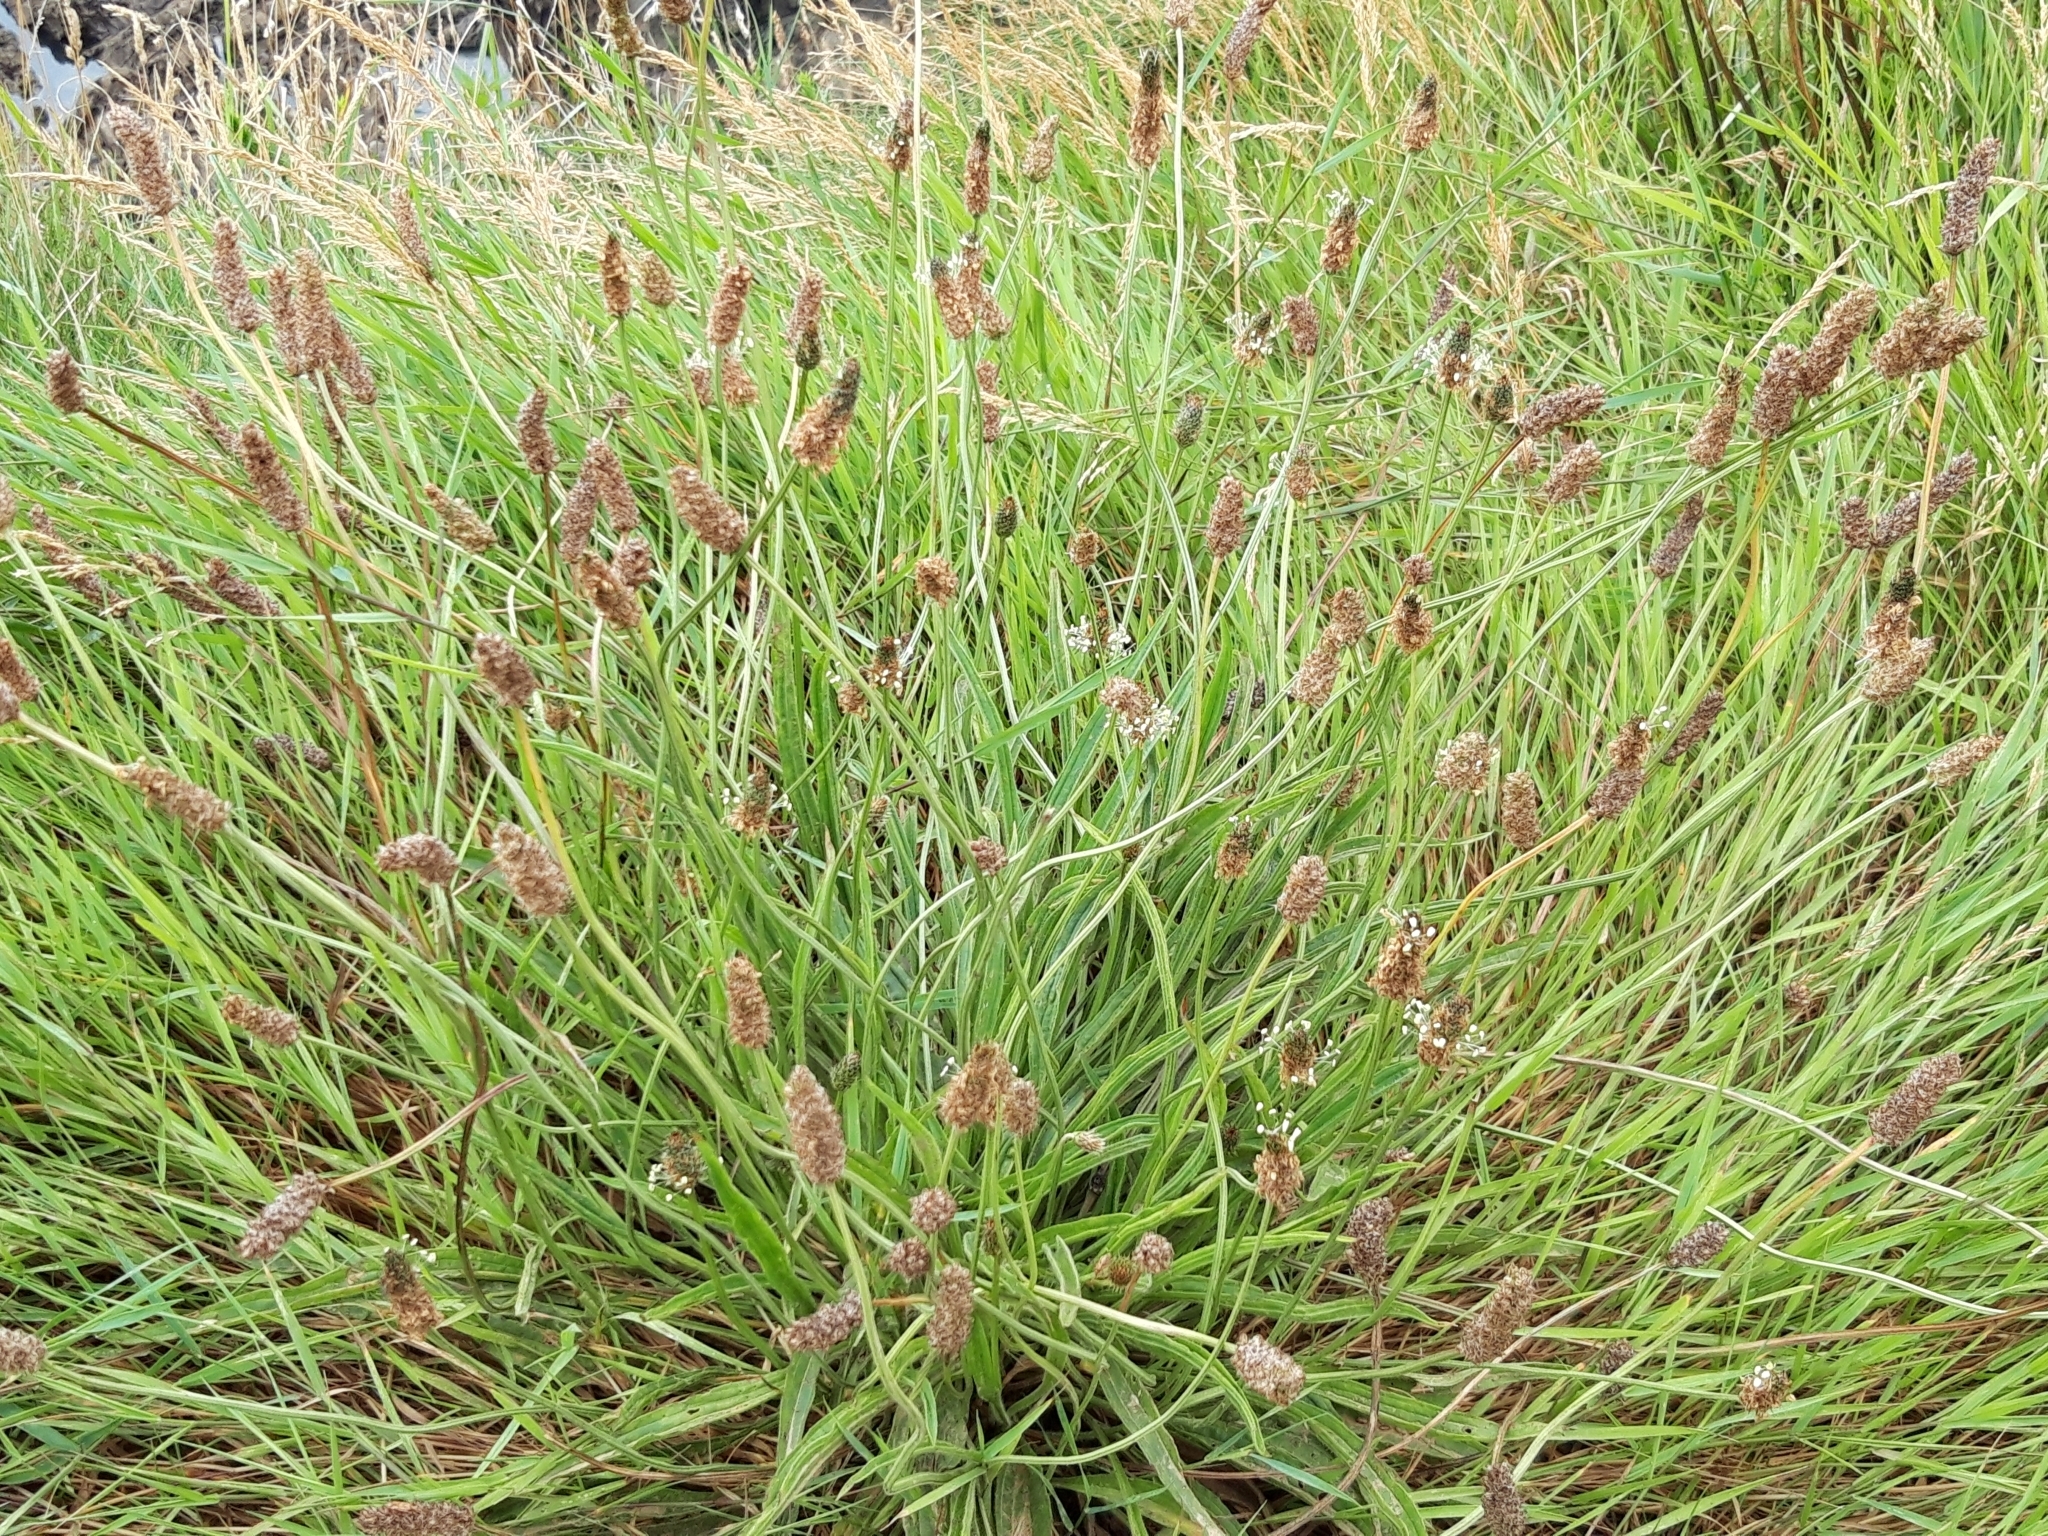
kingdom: Plantae
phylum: Tracheophyta
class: Magnoliopsida
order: Lamiales
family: Plantaginaceae
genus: Plantago
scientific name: Plantago lanceolata
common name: Ribwort plantain
